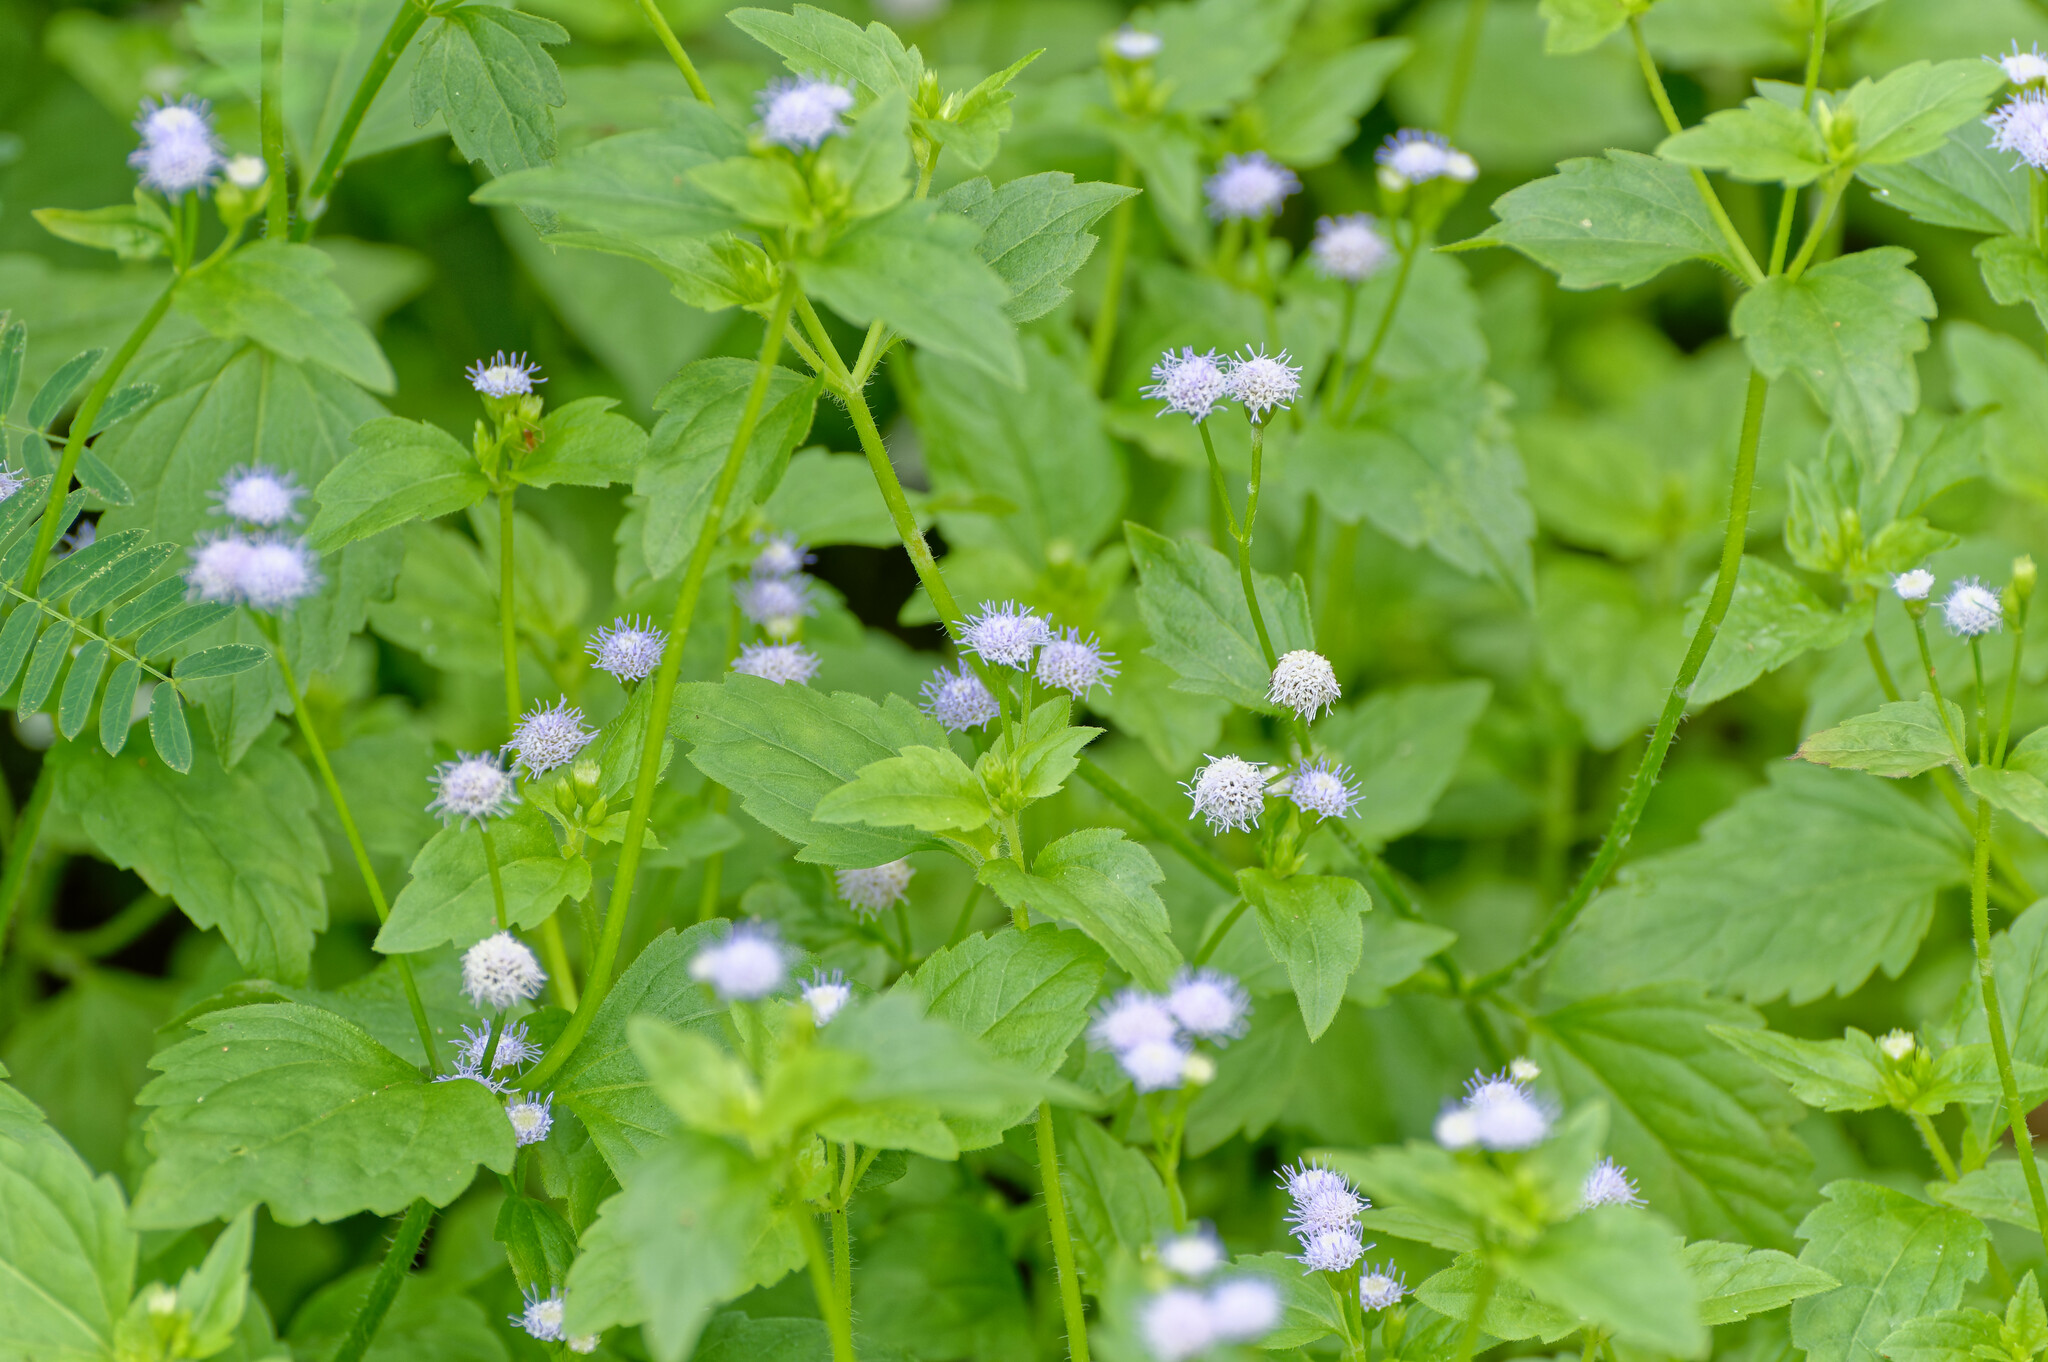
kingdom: Plantae
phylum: Tracheophyta
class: Magnoliopsida
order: Asterales
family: Asteraceae
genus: Praxelis
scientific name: Praxelis clematidea
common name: Praxelis
